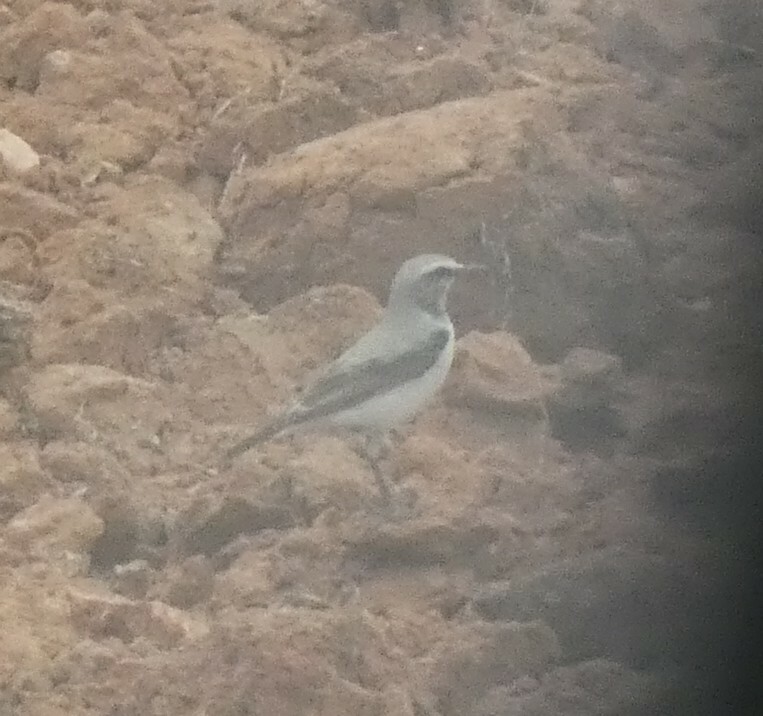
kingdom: Animalia
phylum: Chordata
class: Aves
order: Passeriformes
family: Muscicapidae
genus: Oenanthe
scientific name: Oenanthe oenanthe
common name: Northern wheatear
